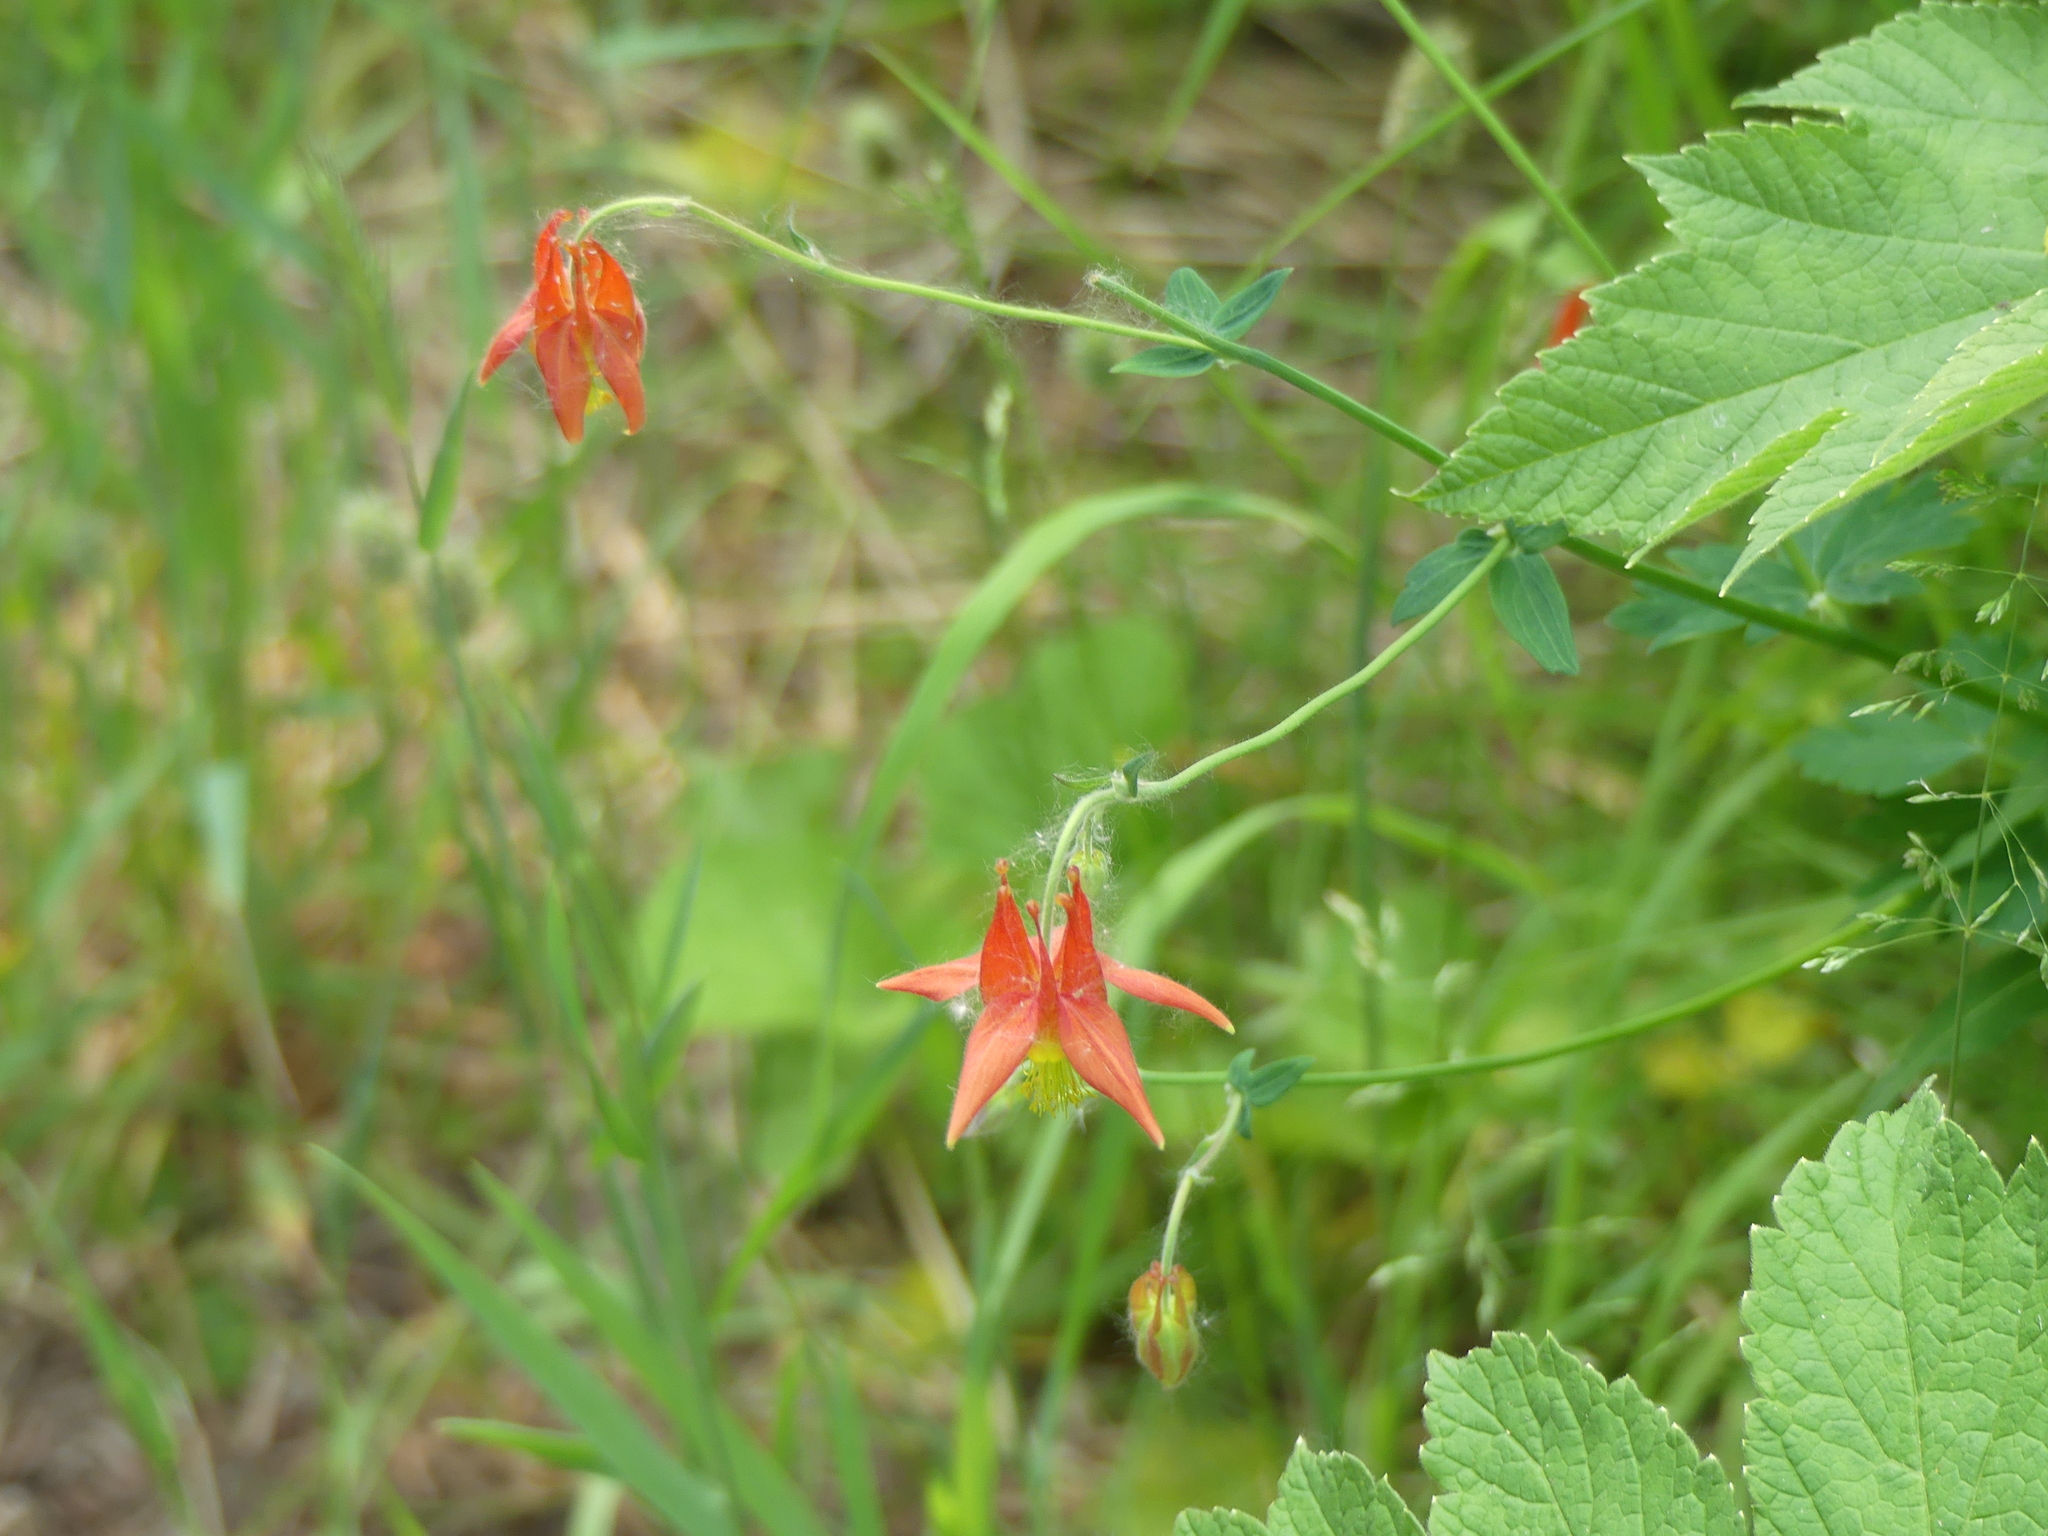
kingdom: Plantae
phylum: Tracheophyta
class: Magnoliopsida
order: Ranunculales
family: Ranunculaceae
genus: Aquilegia
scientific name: Aquilegia formosa
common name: Sitka columbine
